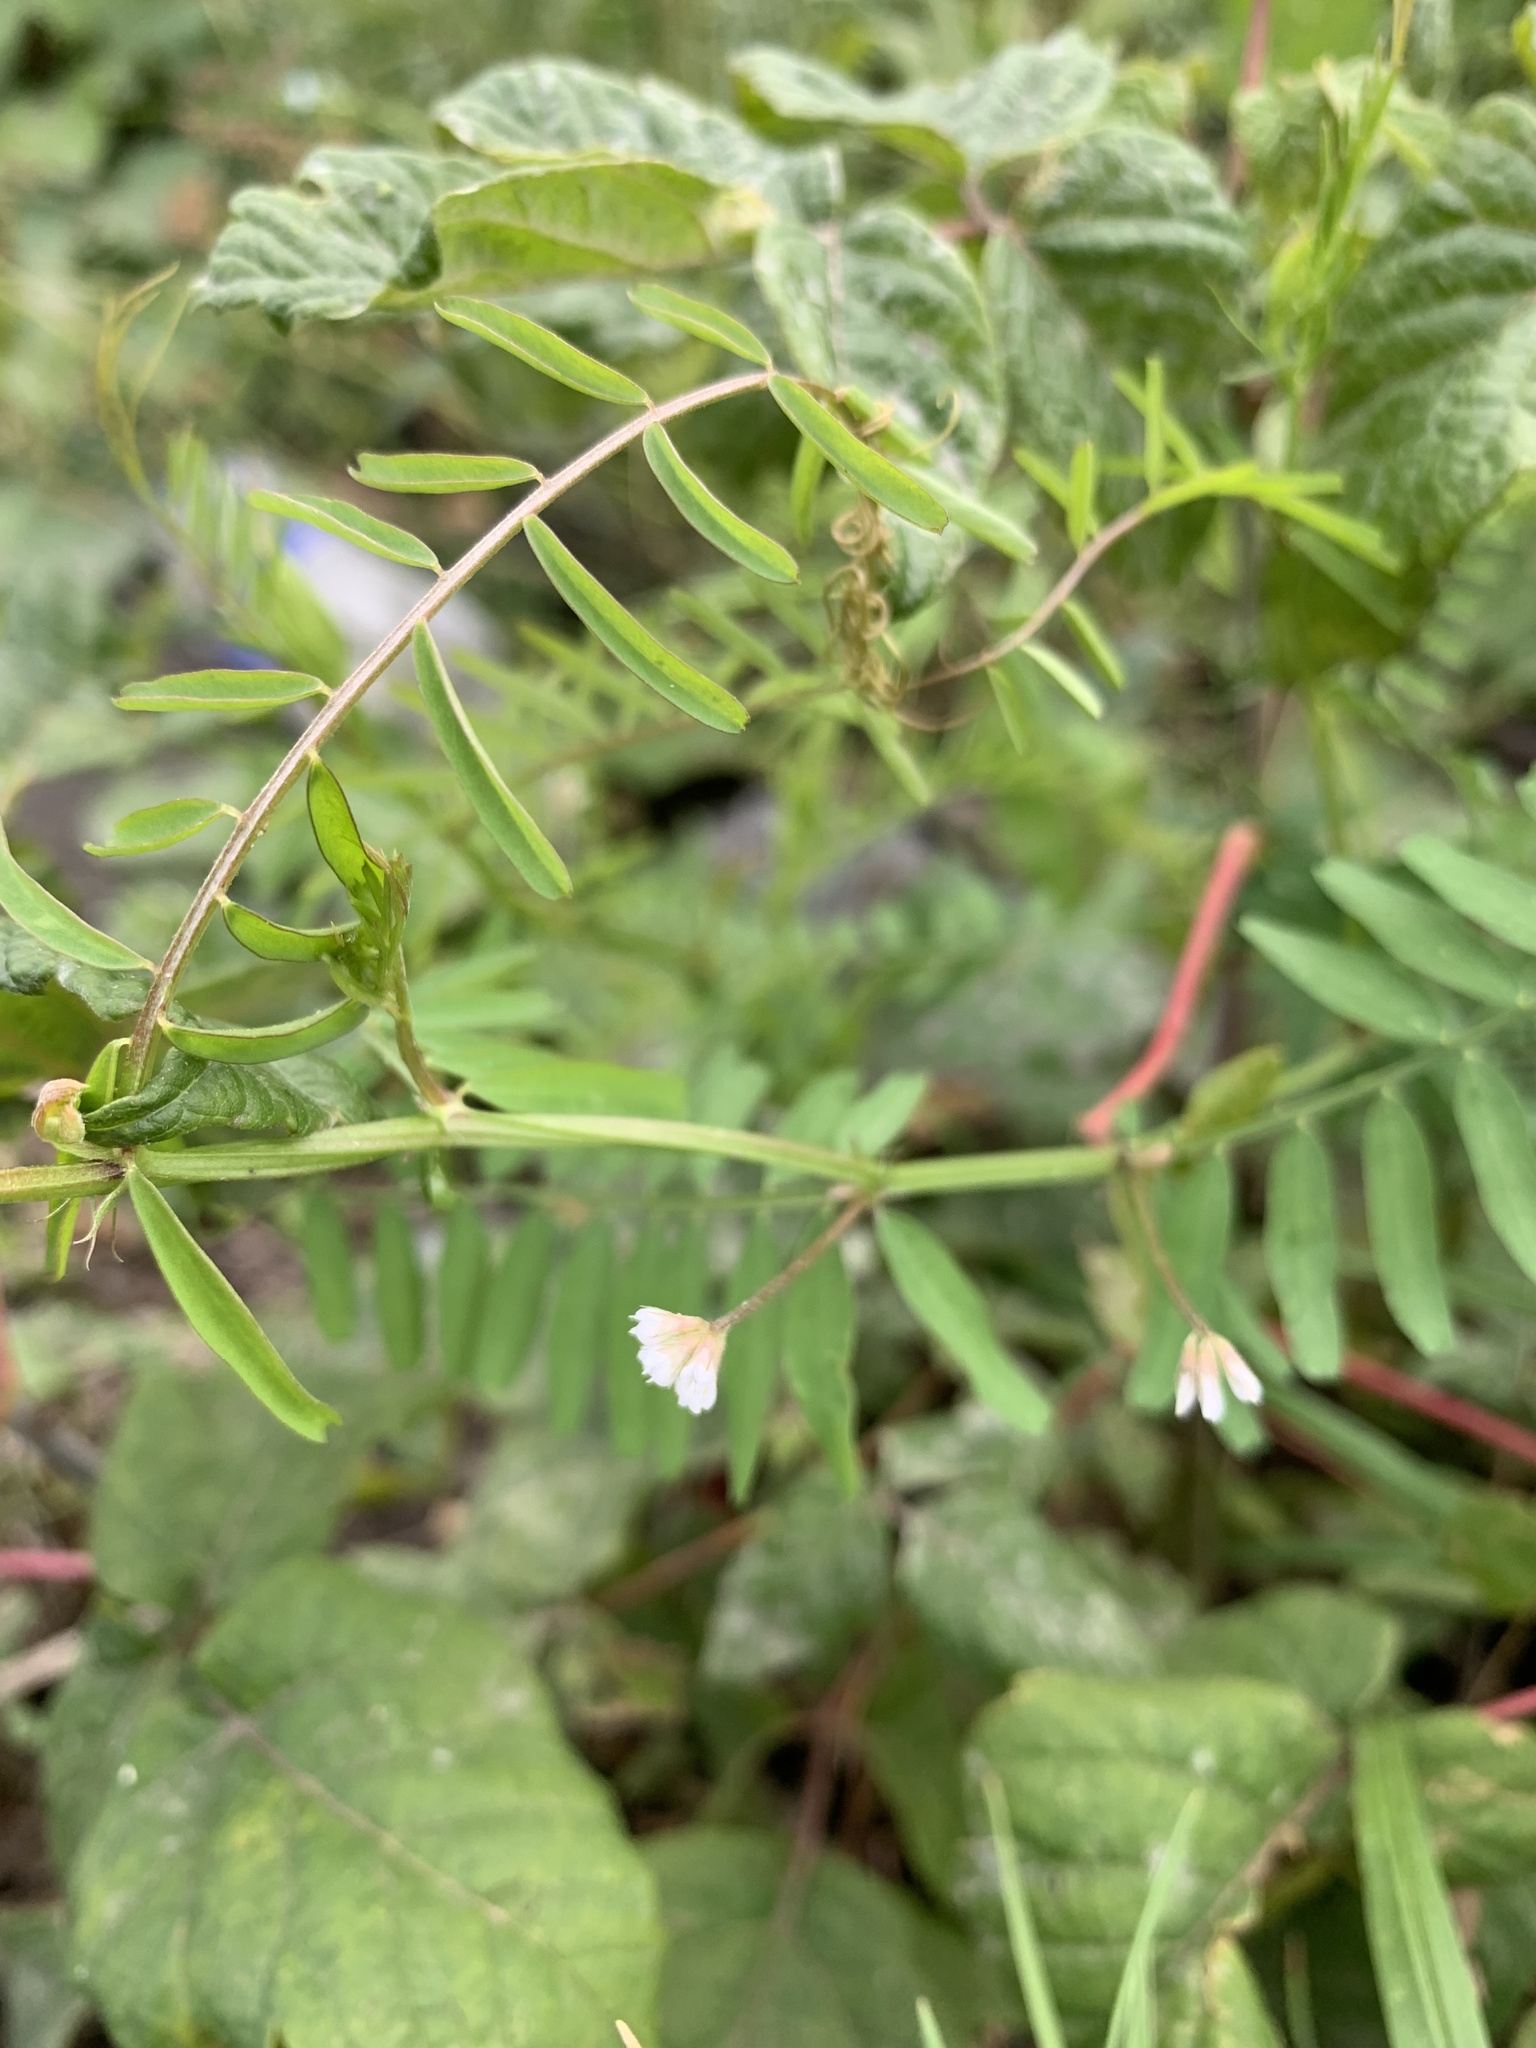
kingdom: Plantae
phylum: Tracheophyta
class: Magnoliopsida
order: Fabales
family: Fabaceae
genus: Vicia
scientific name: Vicia hirsuta
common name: Tiny vetch
